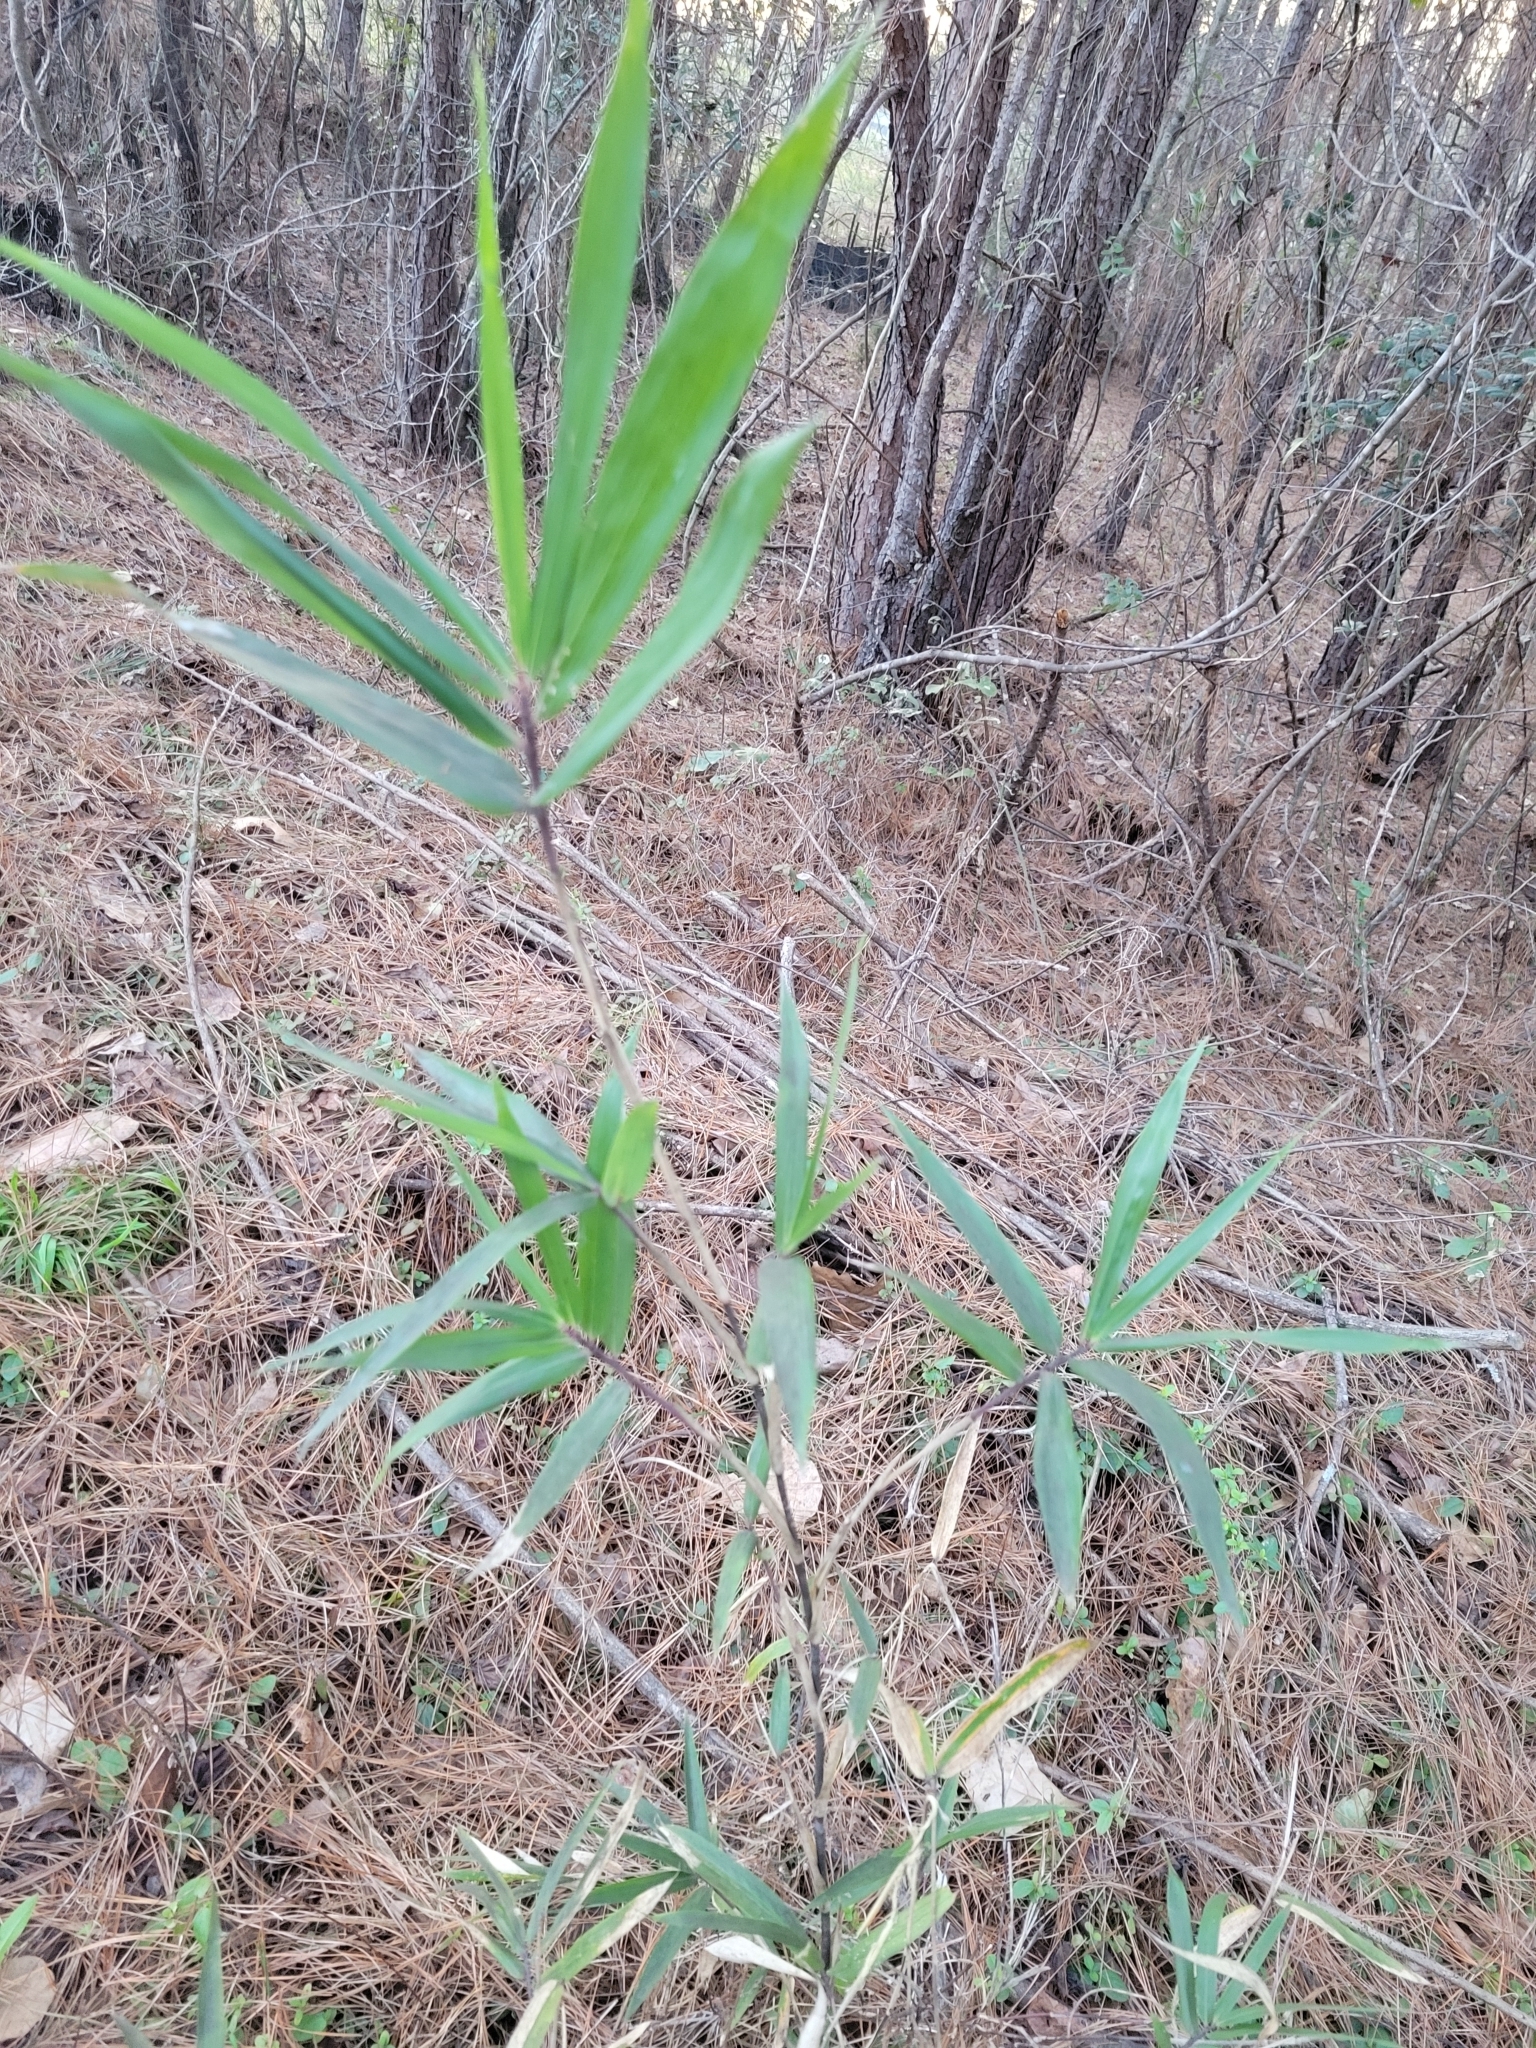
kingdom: Plantae
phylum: Tracheophyta
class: Liliopsida
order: Poales
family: Poaceae
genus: Arundinaria
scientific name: Arundinaria tecta
